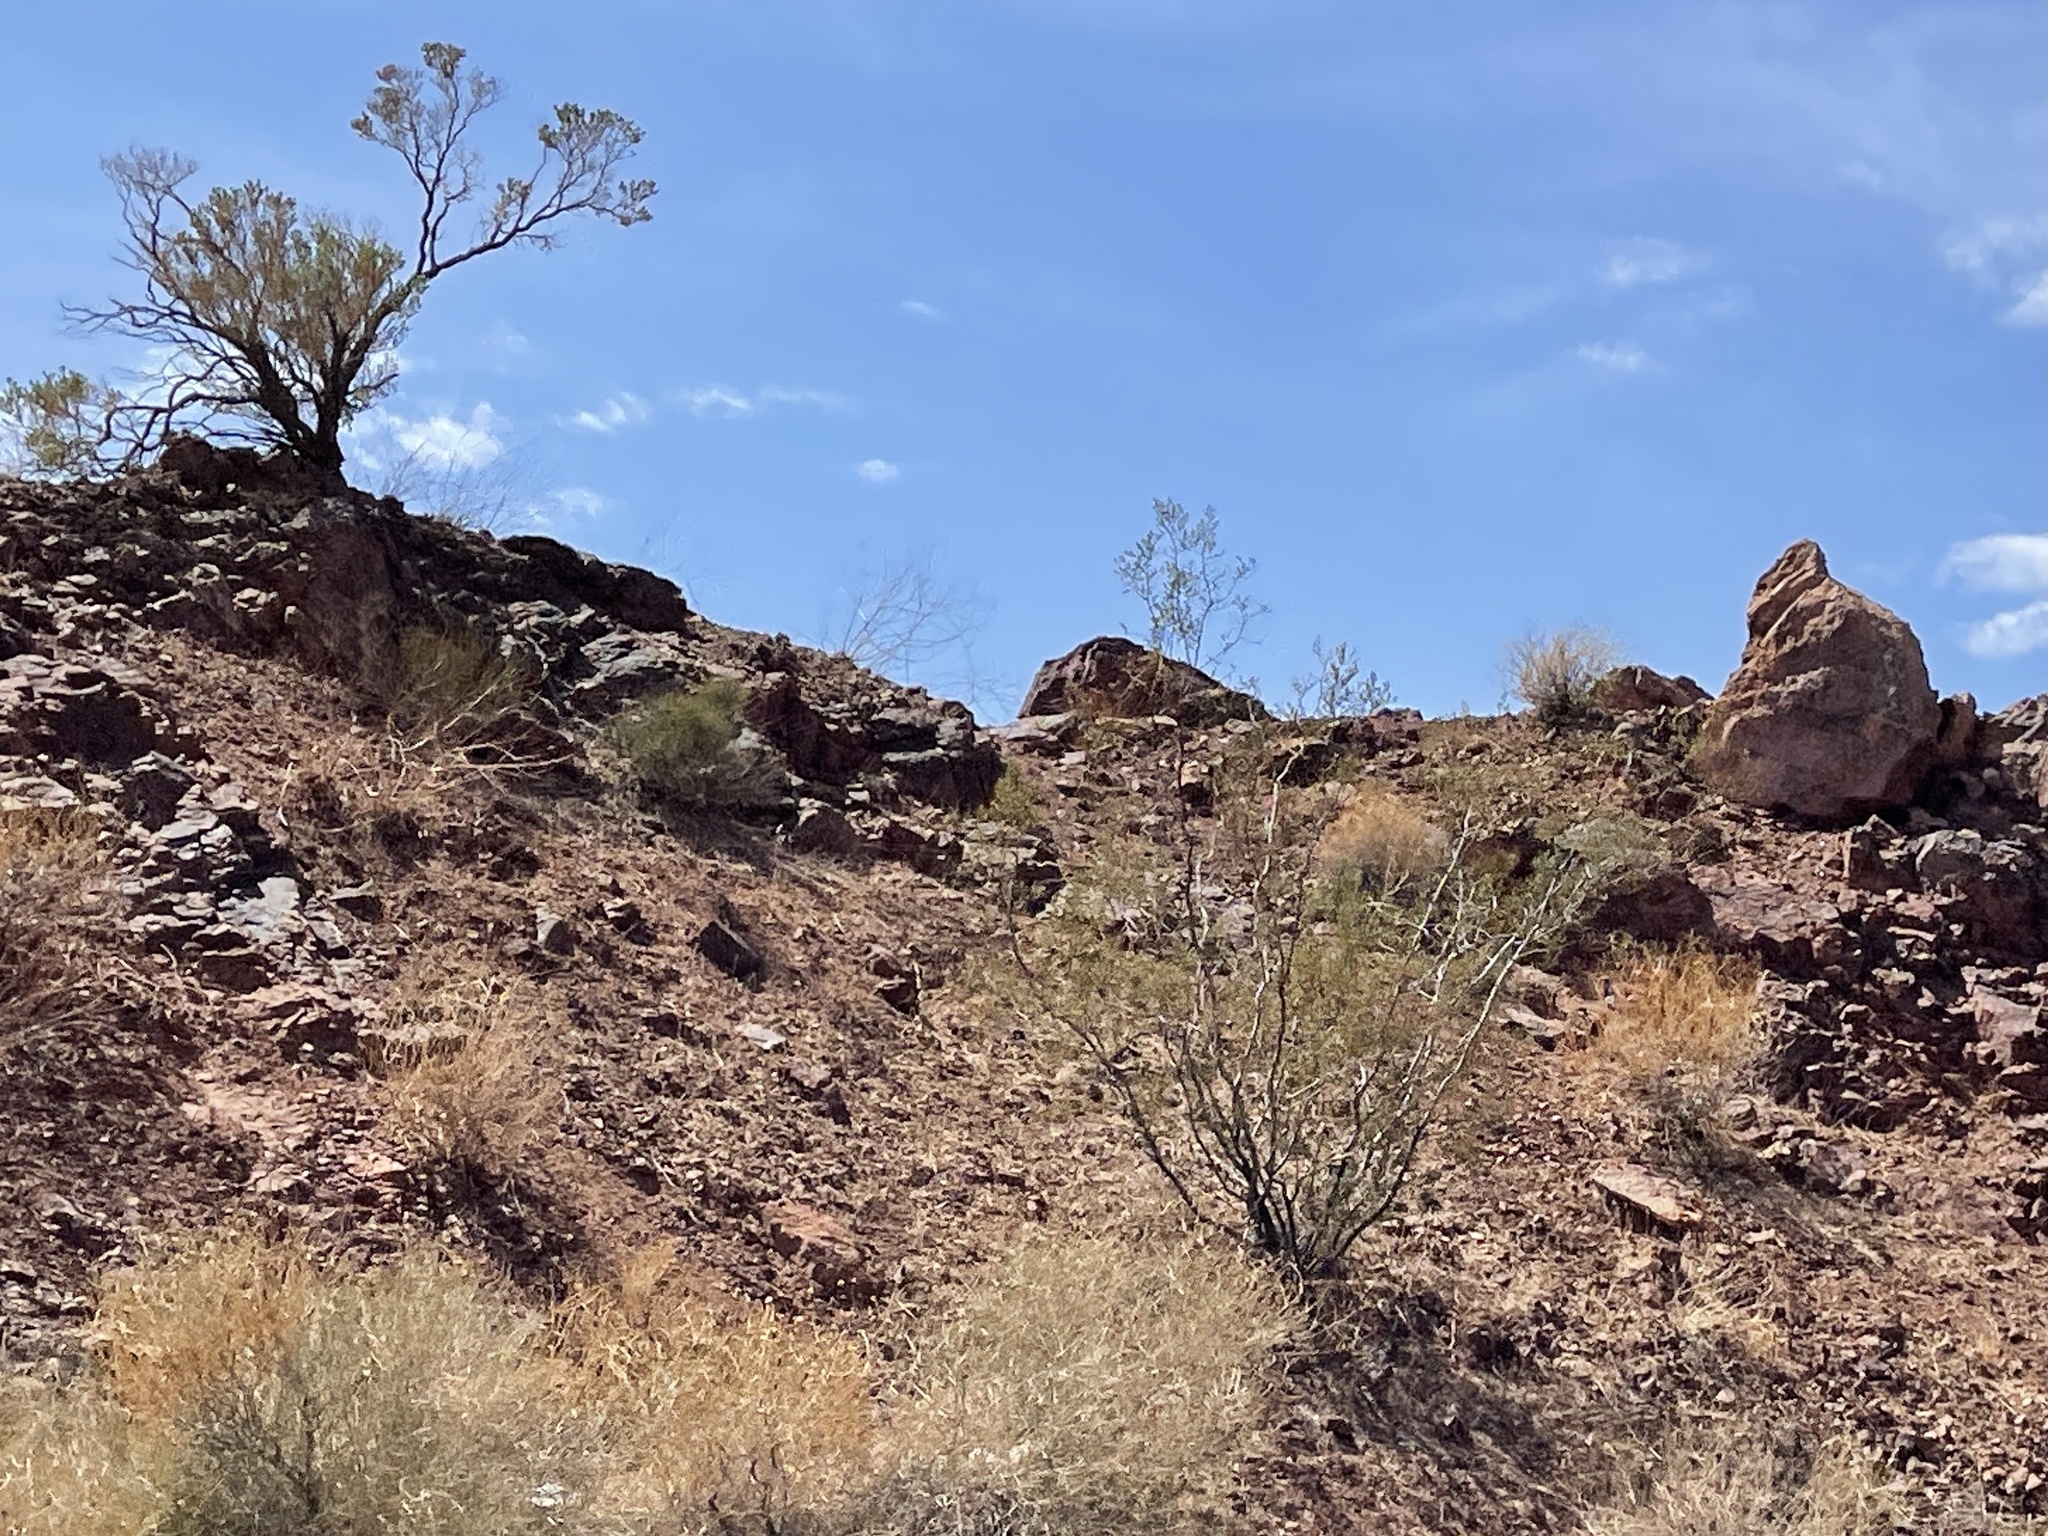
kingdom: Plantae
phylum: Tracheophyta
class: Magnoliopsida
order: Zygophyllales
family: Zygophyllaceae
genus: Larrea
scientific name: Larrea tridentata
